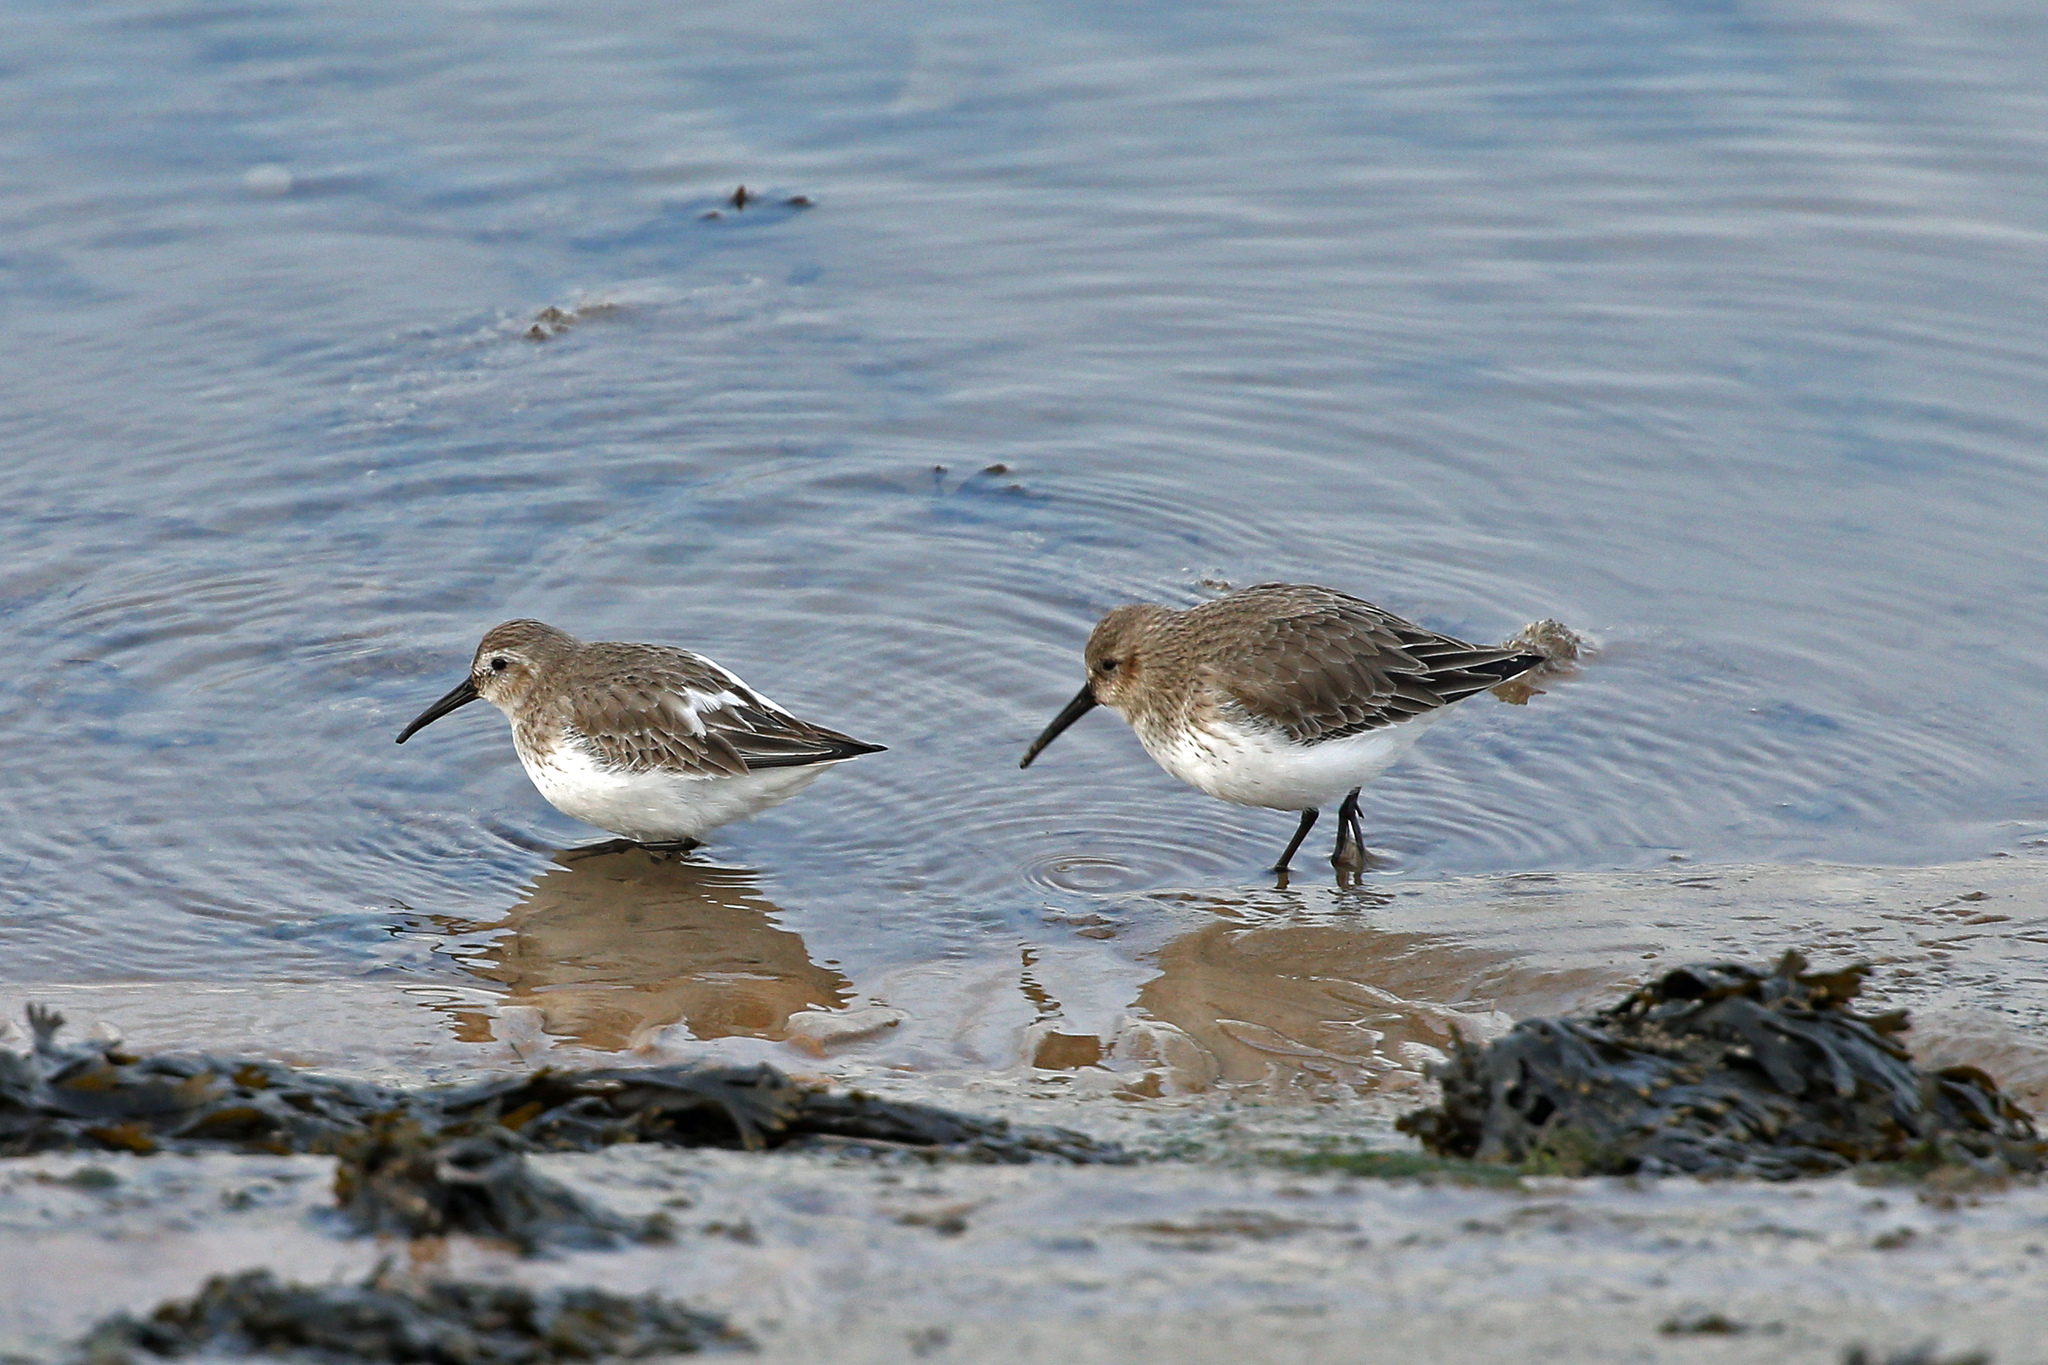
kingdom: Animalia
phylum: Chordata
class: Aves
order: Charadriiformes
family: Scolopacidae
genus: Calidris
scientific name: Calidris alpina
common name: Dunlin
